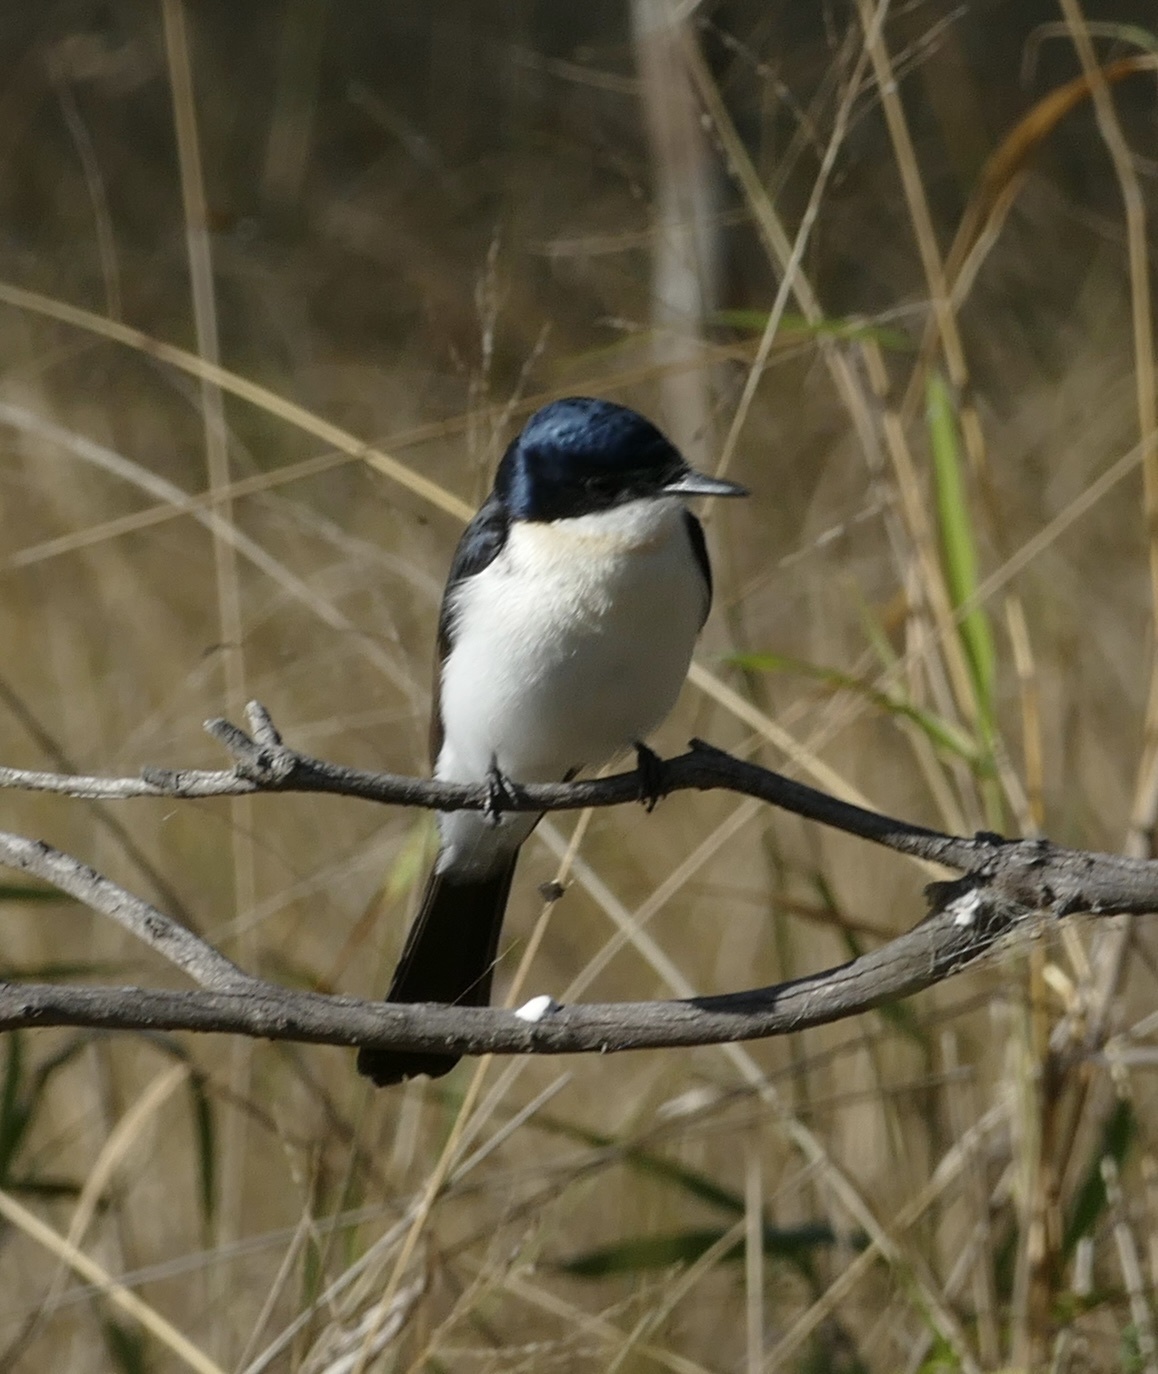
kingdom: Animalia
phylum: Chordata
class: Aves
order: Passeriformes
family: Monarchidae
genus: Myiagra
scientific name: Myiagra inquieta
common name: Restless flycatcher
